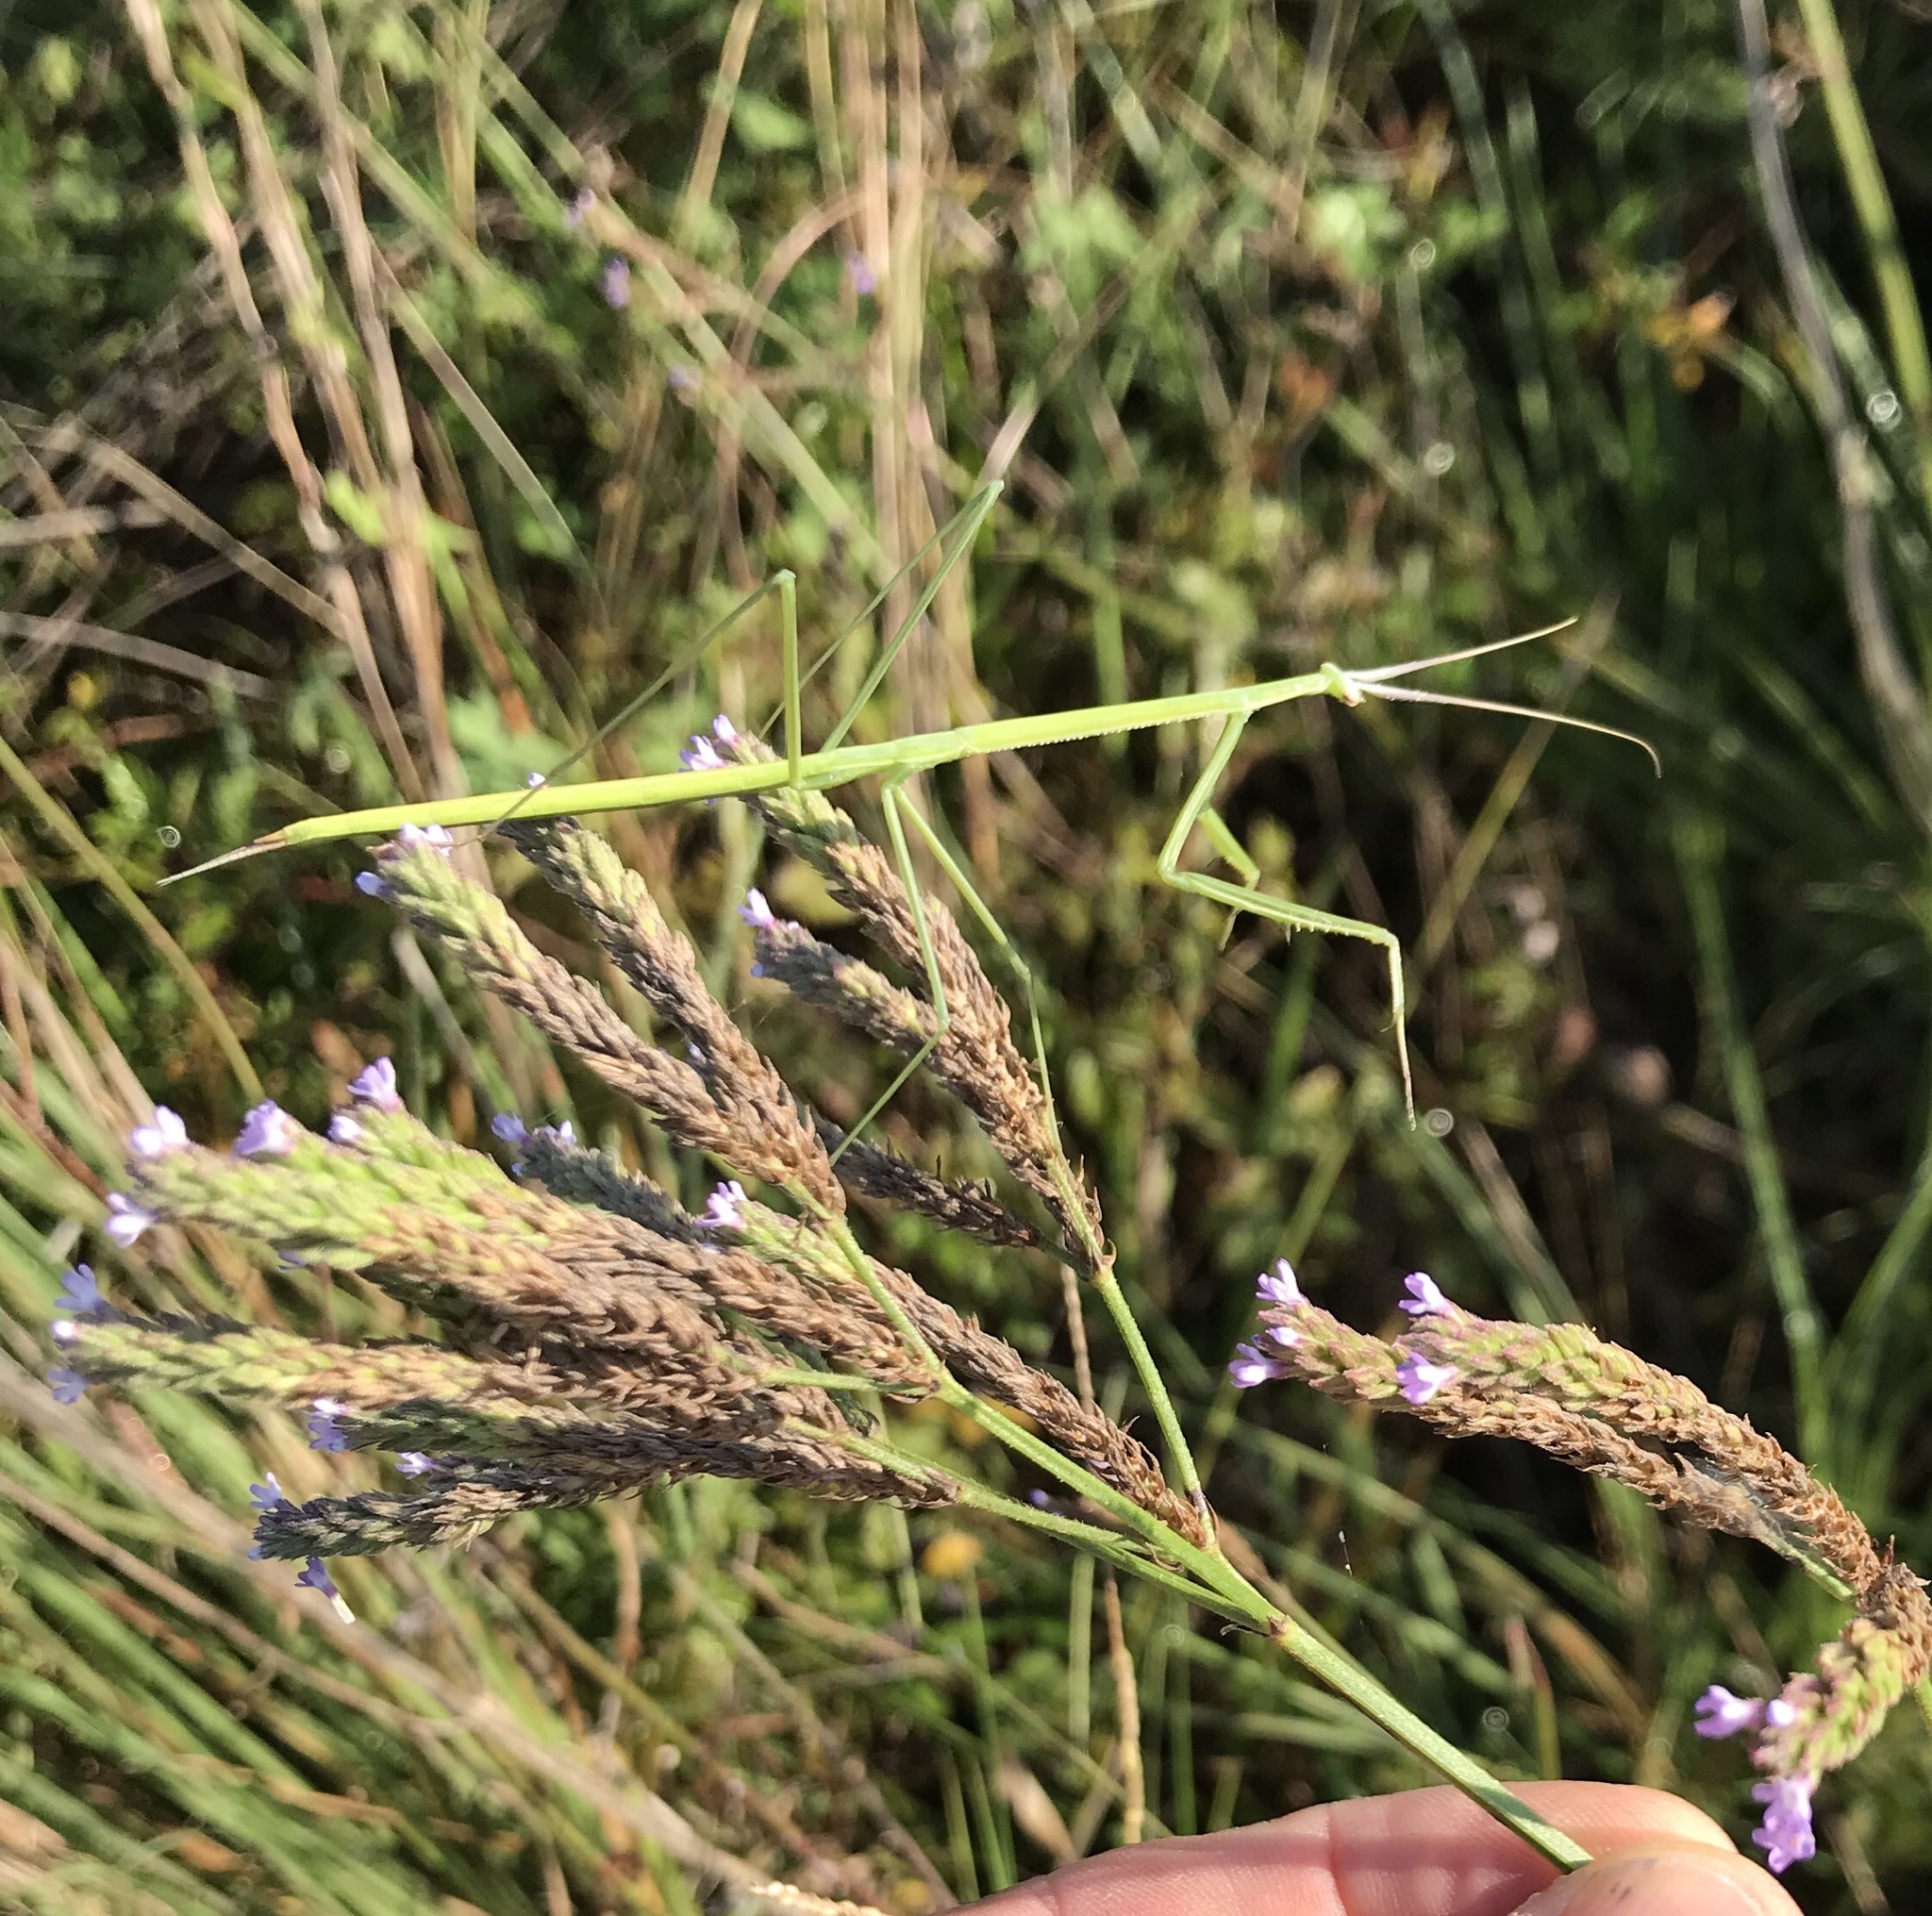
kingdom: Animalia
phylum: Arthropoda
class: Insecta
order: Mantodea
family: Coptopterygidae
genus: Brunneria
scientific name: Brunneria borealis
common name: Mantis
